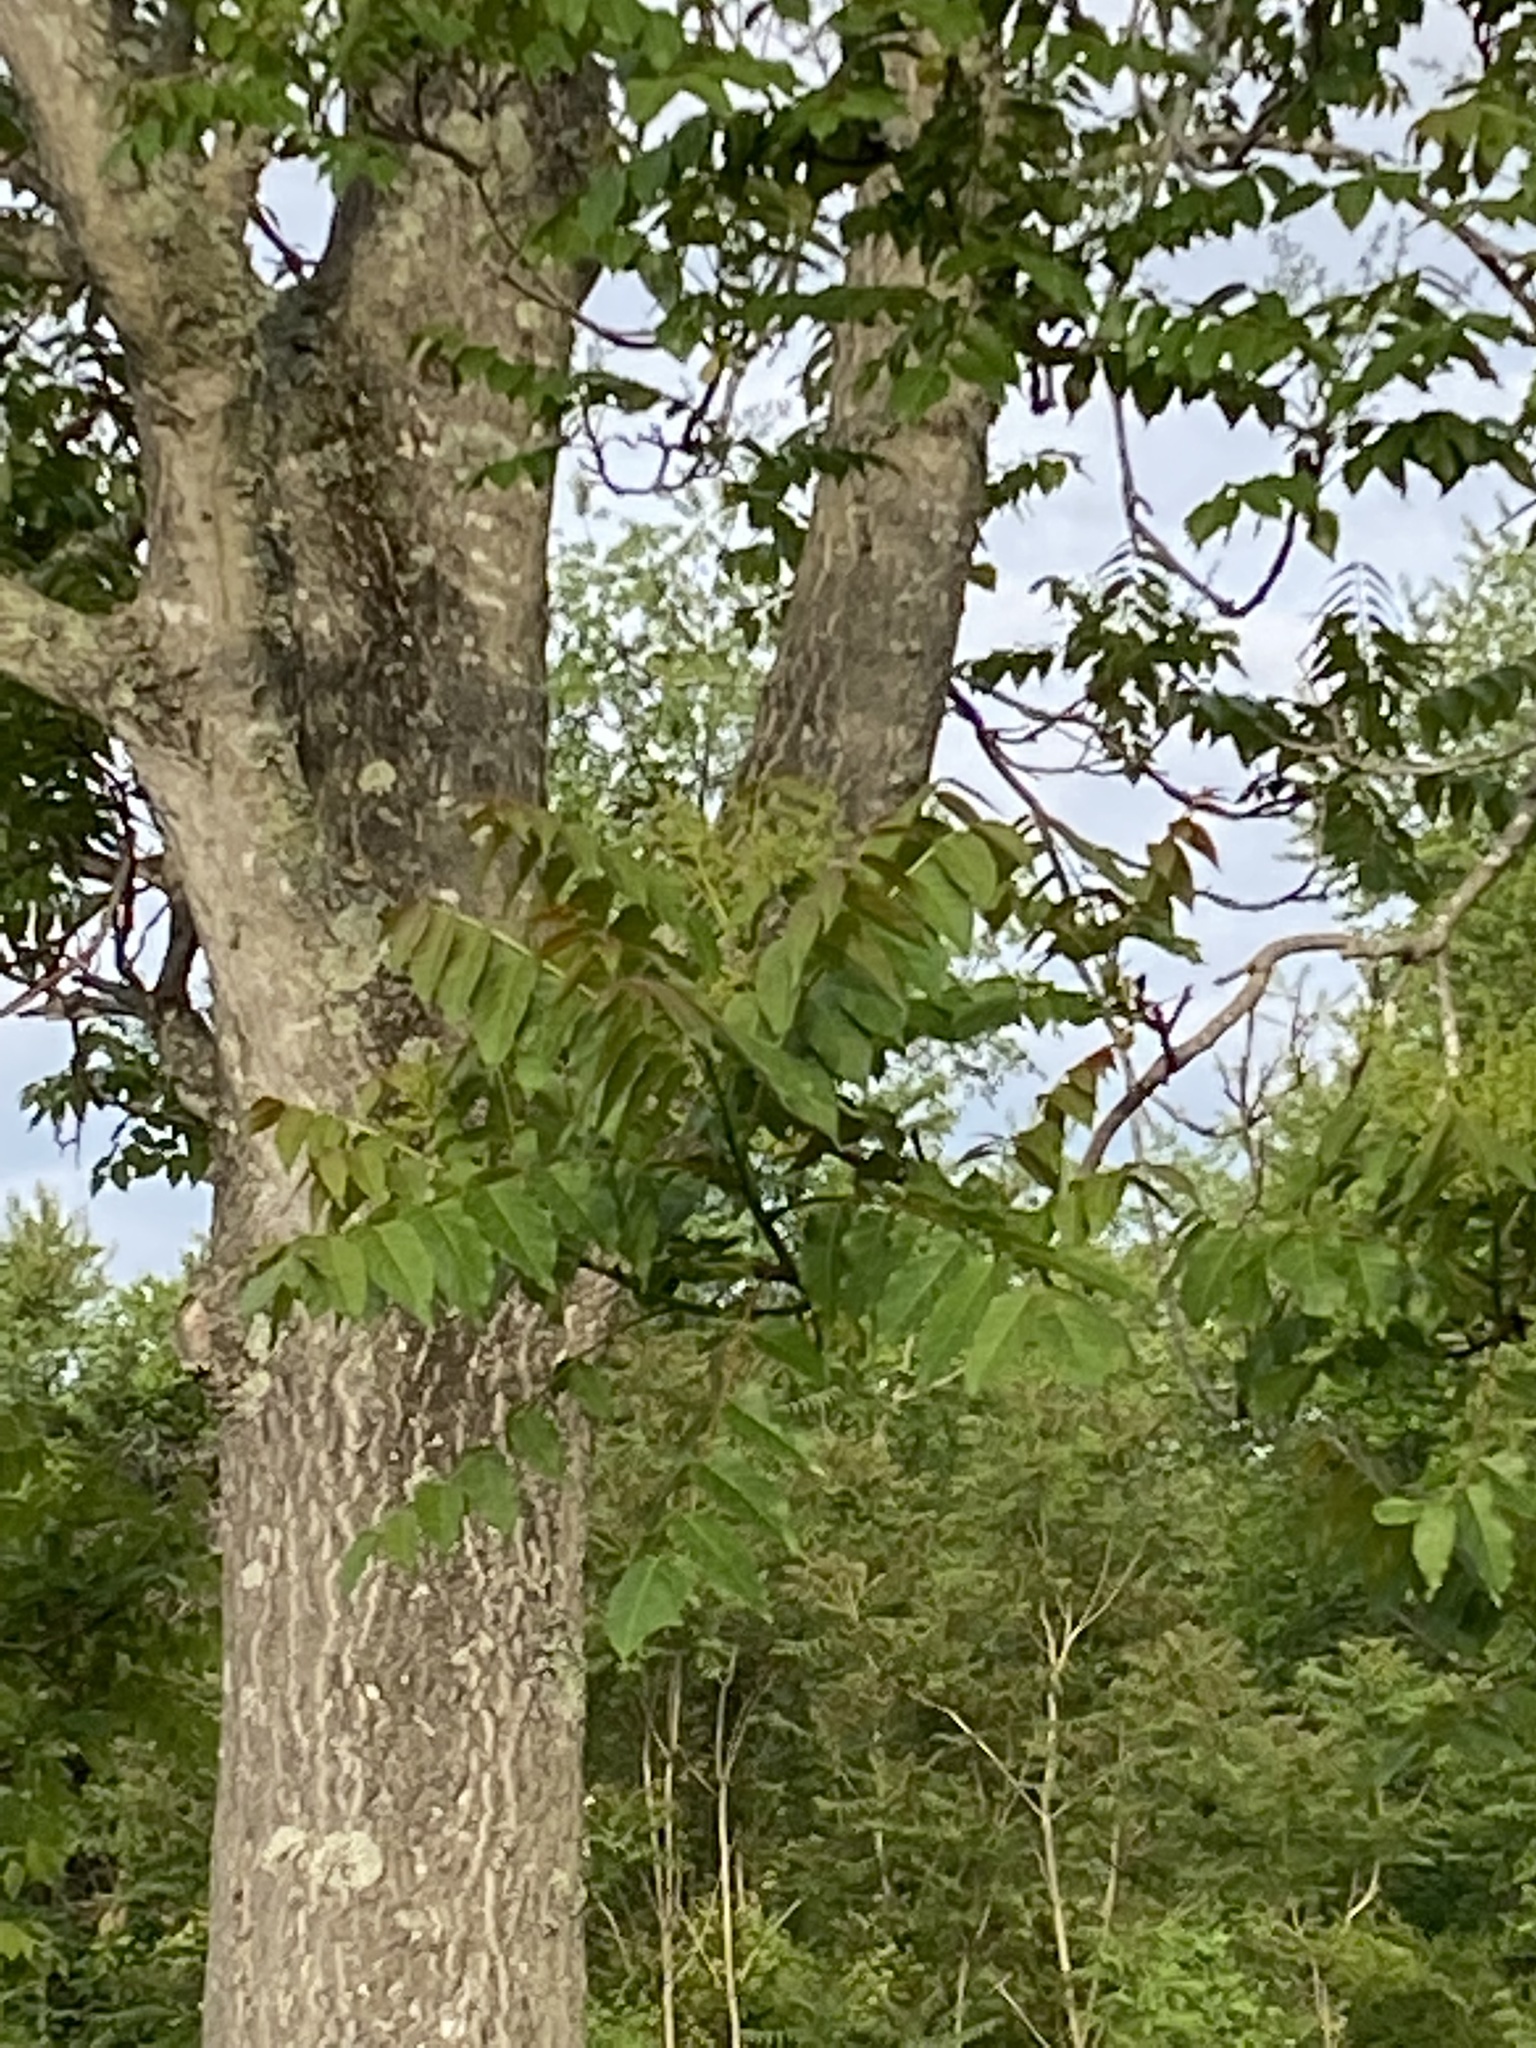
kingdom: Plantae
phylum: Tracheophyta
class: Magnoliopsida
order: Sapindales
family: Simaroubaceae
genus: Ailanthus
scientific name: Ailanthus altissima
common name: Tree-of-heaven
